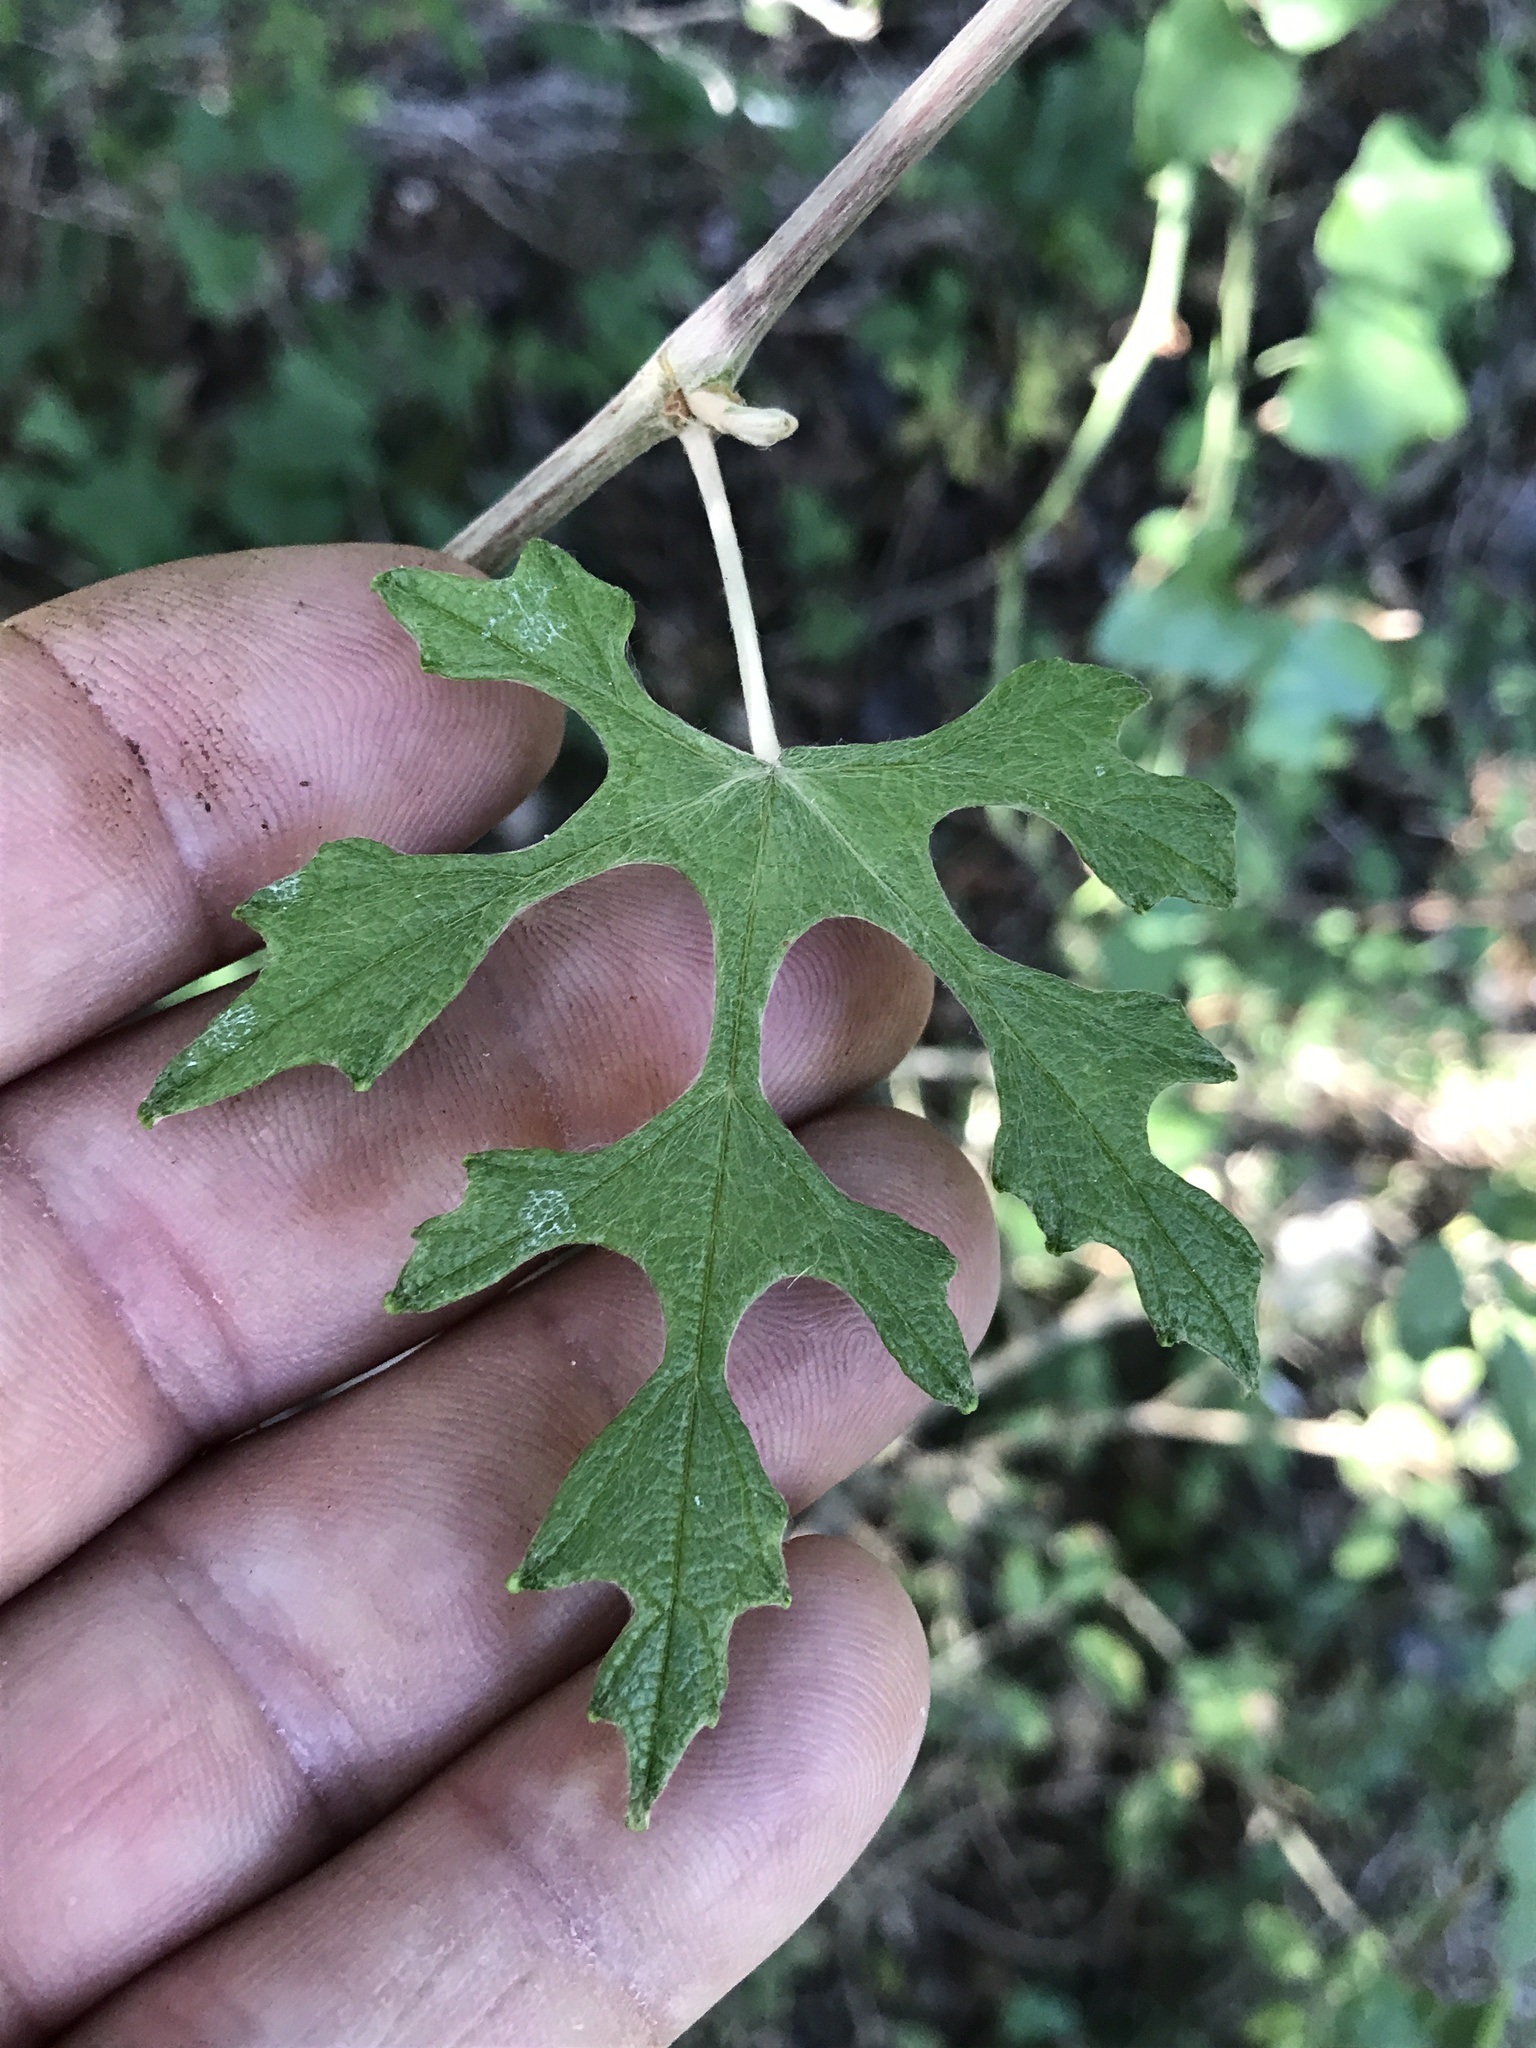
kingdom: Plantae
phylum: Tracheophyta
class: Magnoliopsida
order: Vitales
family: Vitaceae
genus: Vitis
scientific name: Vitis mustangensis
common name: Mustang grape
